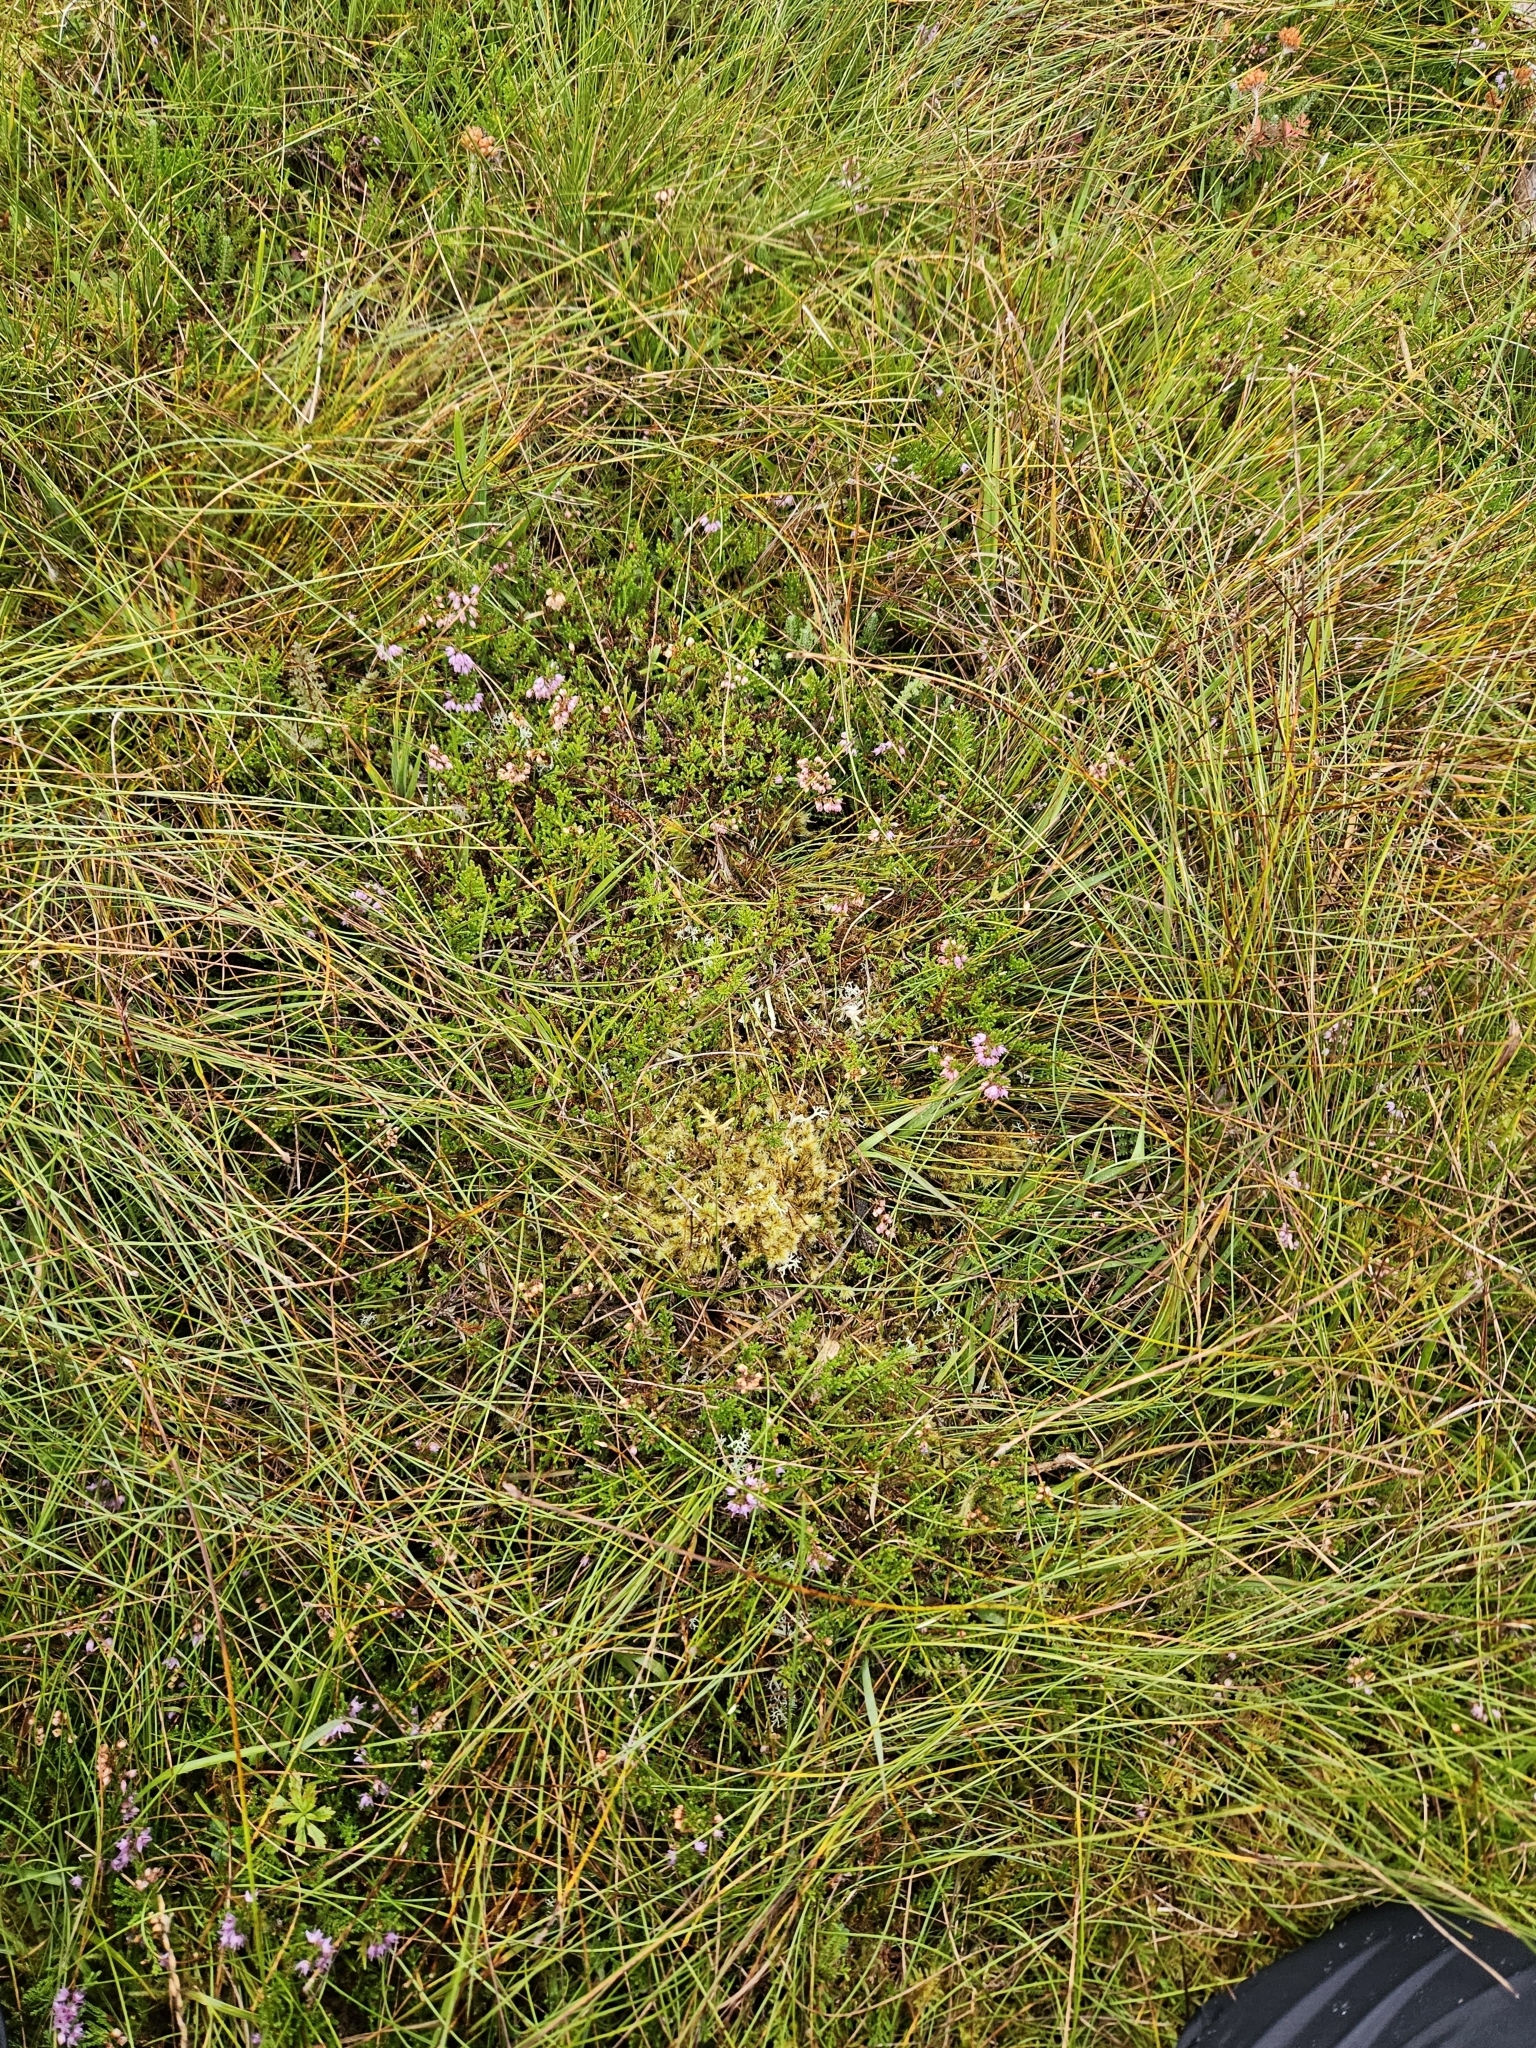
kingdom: Plantae
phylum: Bryophyta
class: Bryopsida
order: Grimmiales
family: Grimmiaceae
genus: Racomitrium
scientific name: Racomitrium lanuginosum
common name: Hoary rock moss
